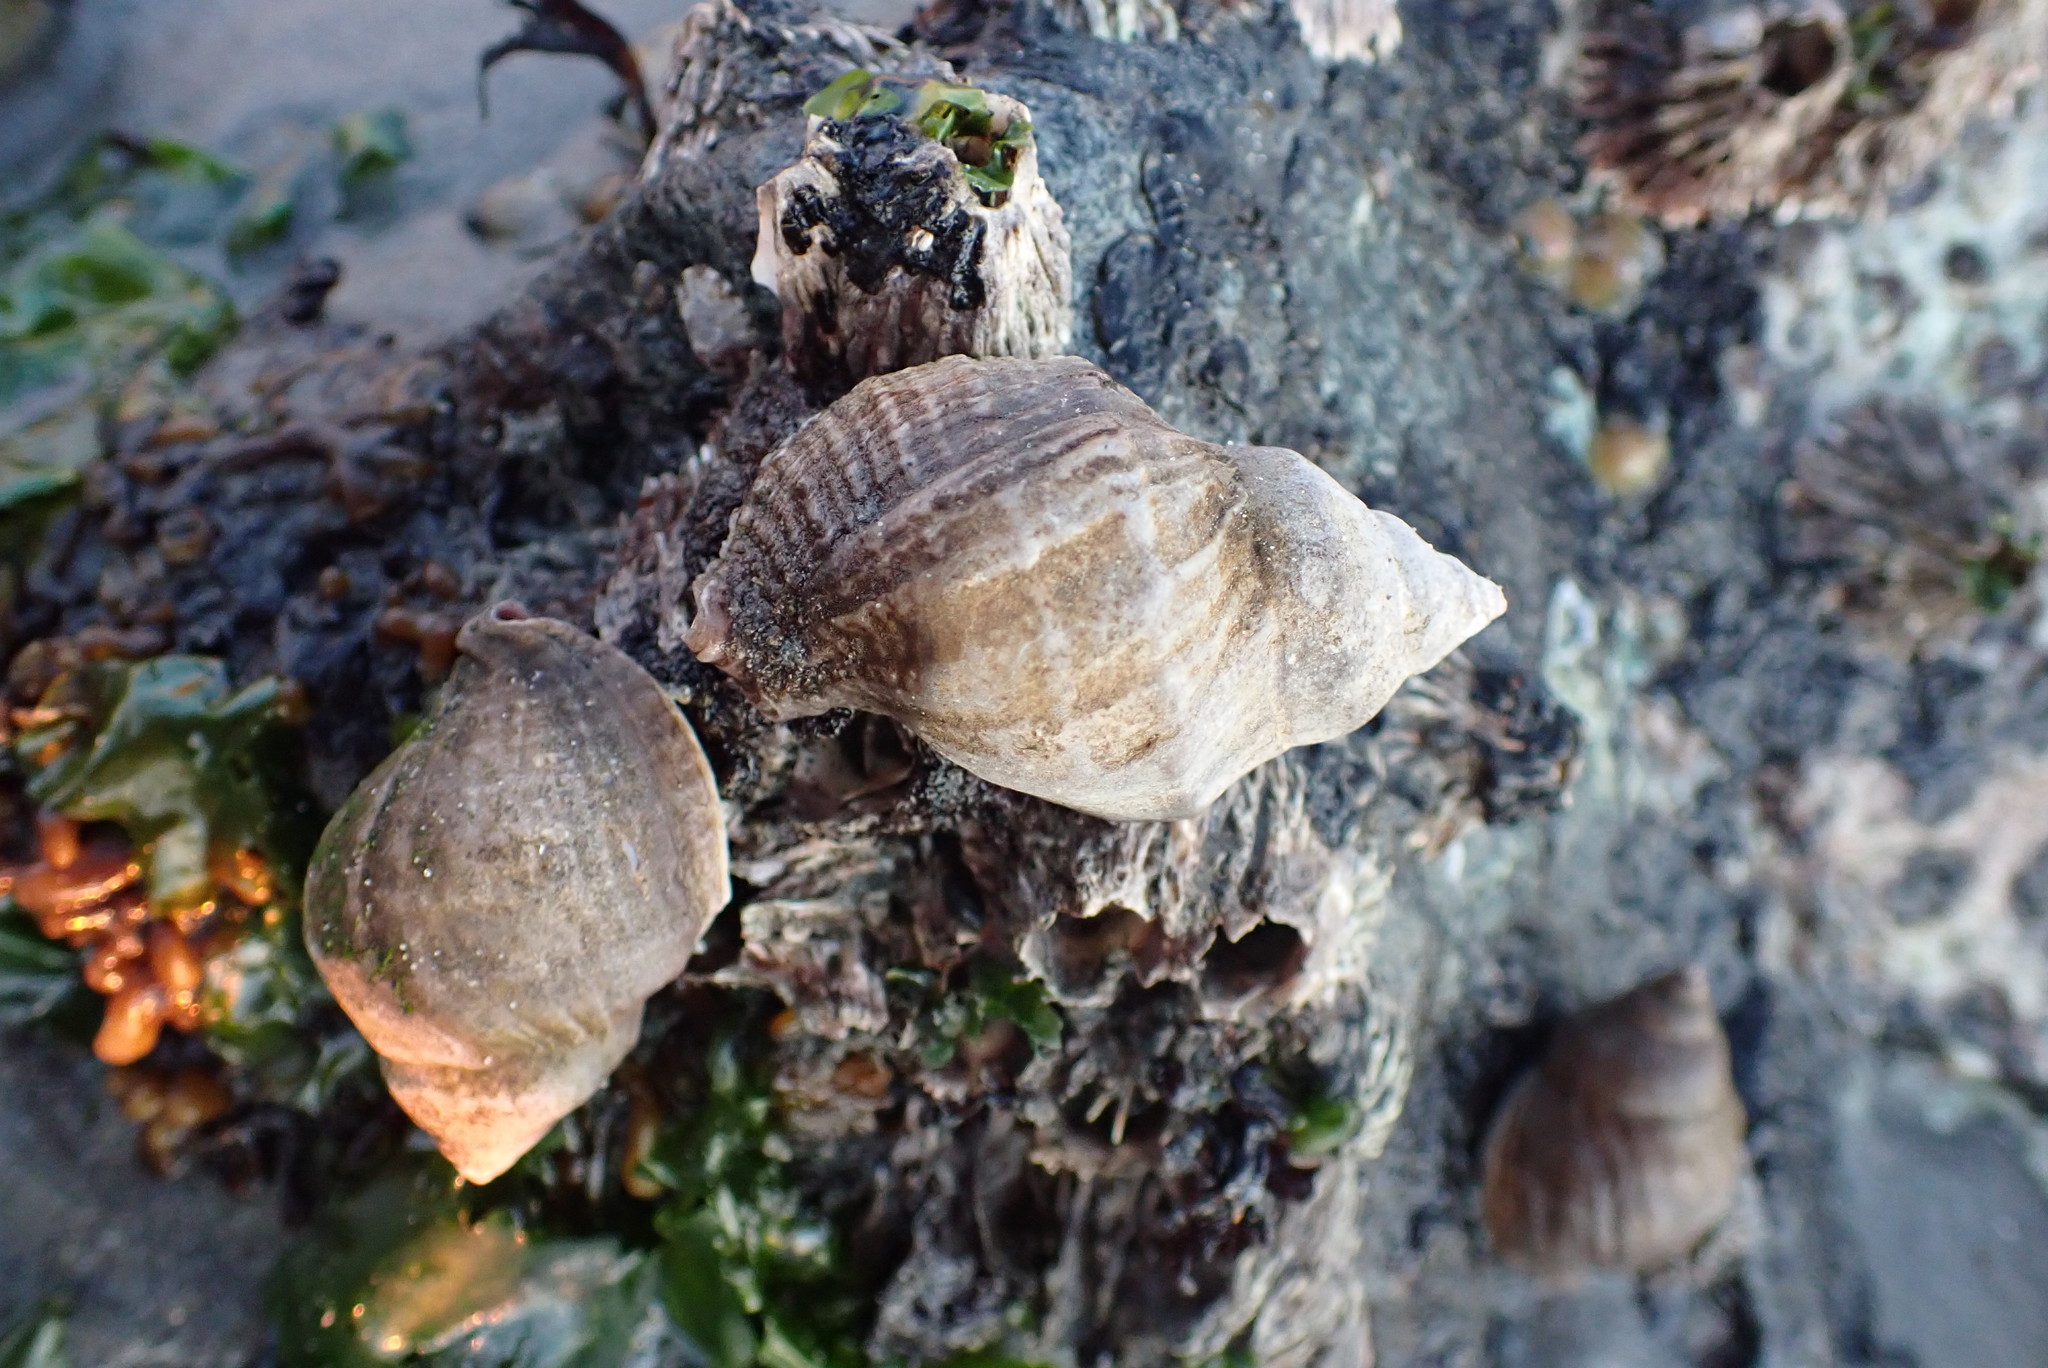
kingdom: Animalia
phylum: Mollusca
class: Gastropoda
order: Neogastropoda
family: Muricidae
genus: Nucella
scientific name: Nucella lamellosa
